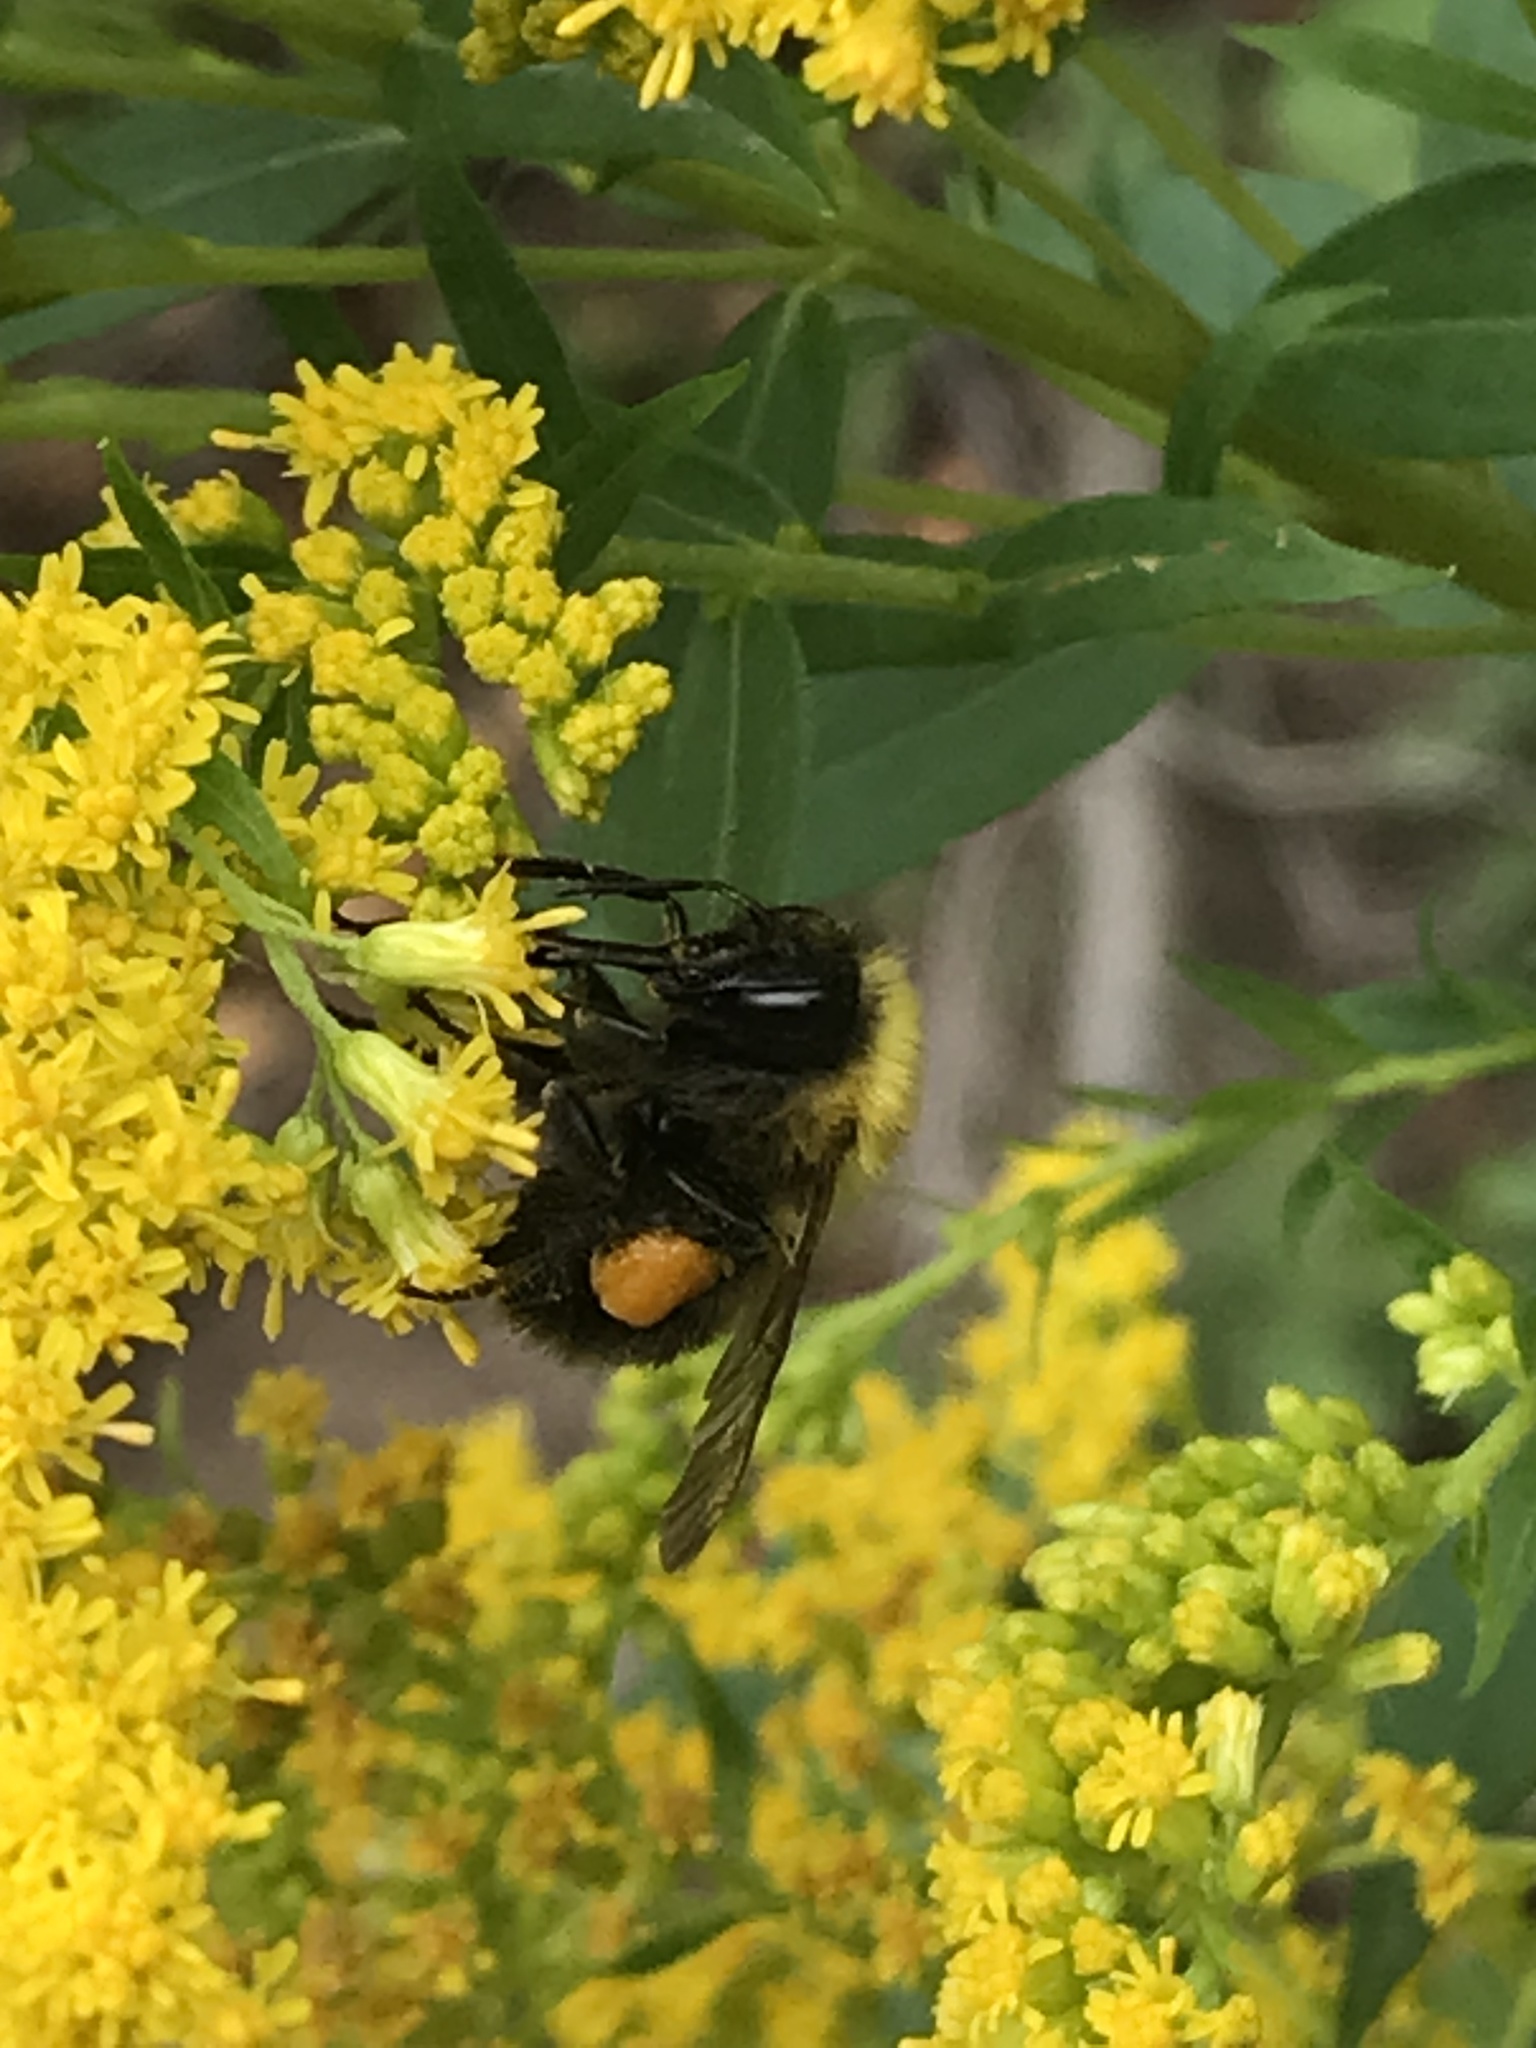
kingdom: Animalia
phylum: Arthropoda
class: Insecta
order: Hymenoptera
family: Apidae
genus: Bombus
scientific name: Bombus perplexus
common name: Confusing bumble bee
